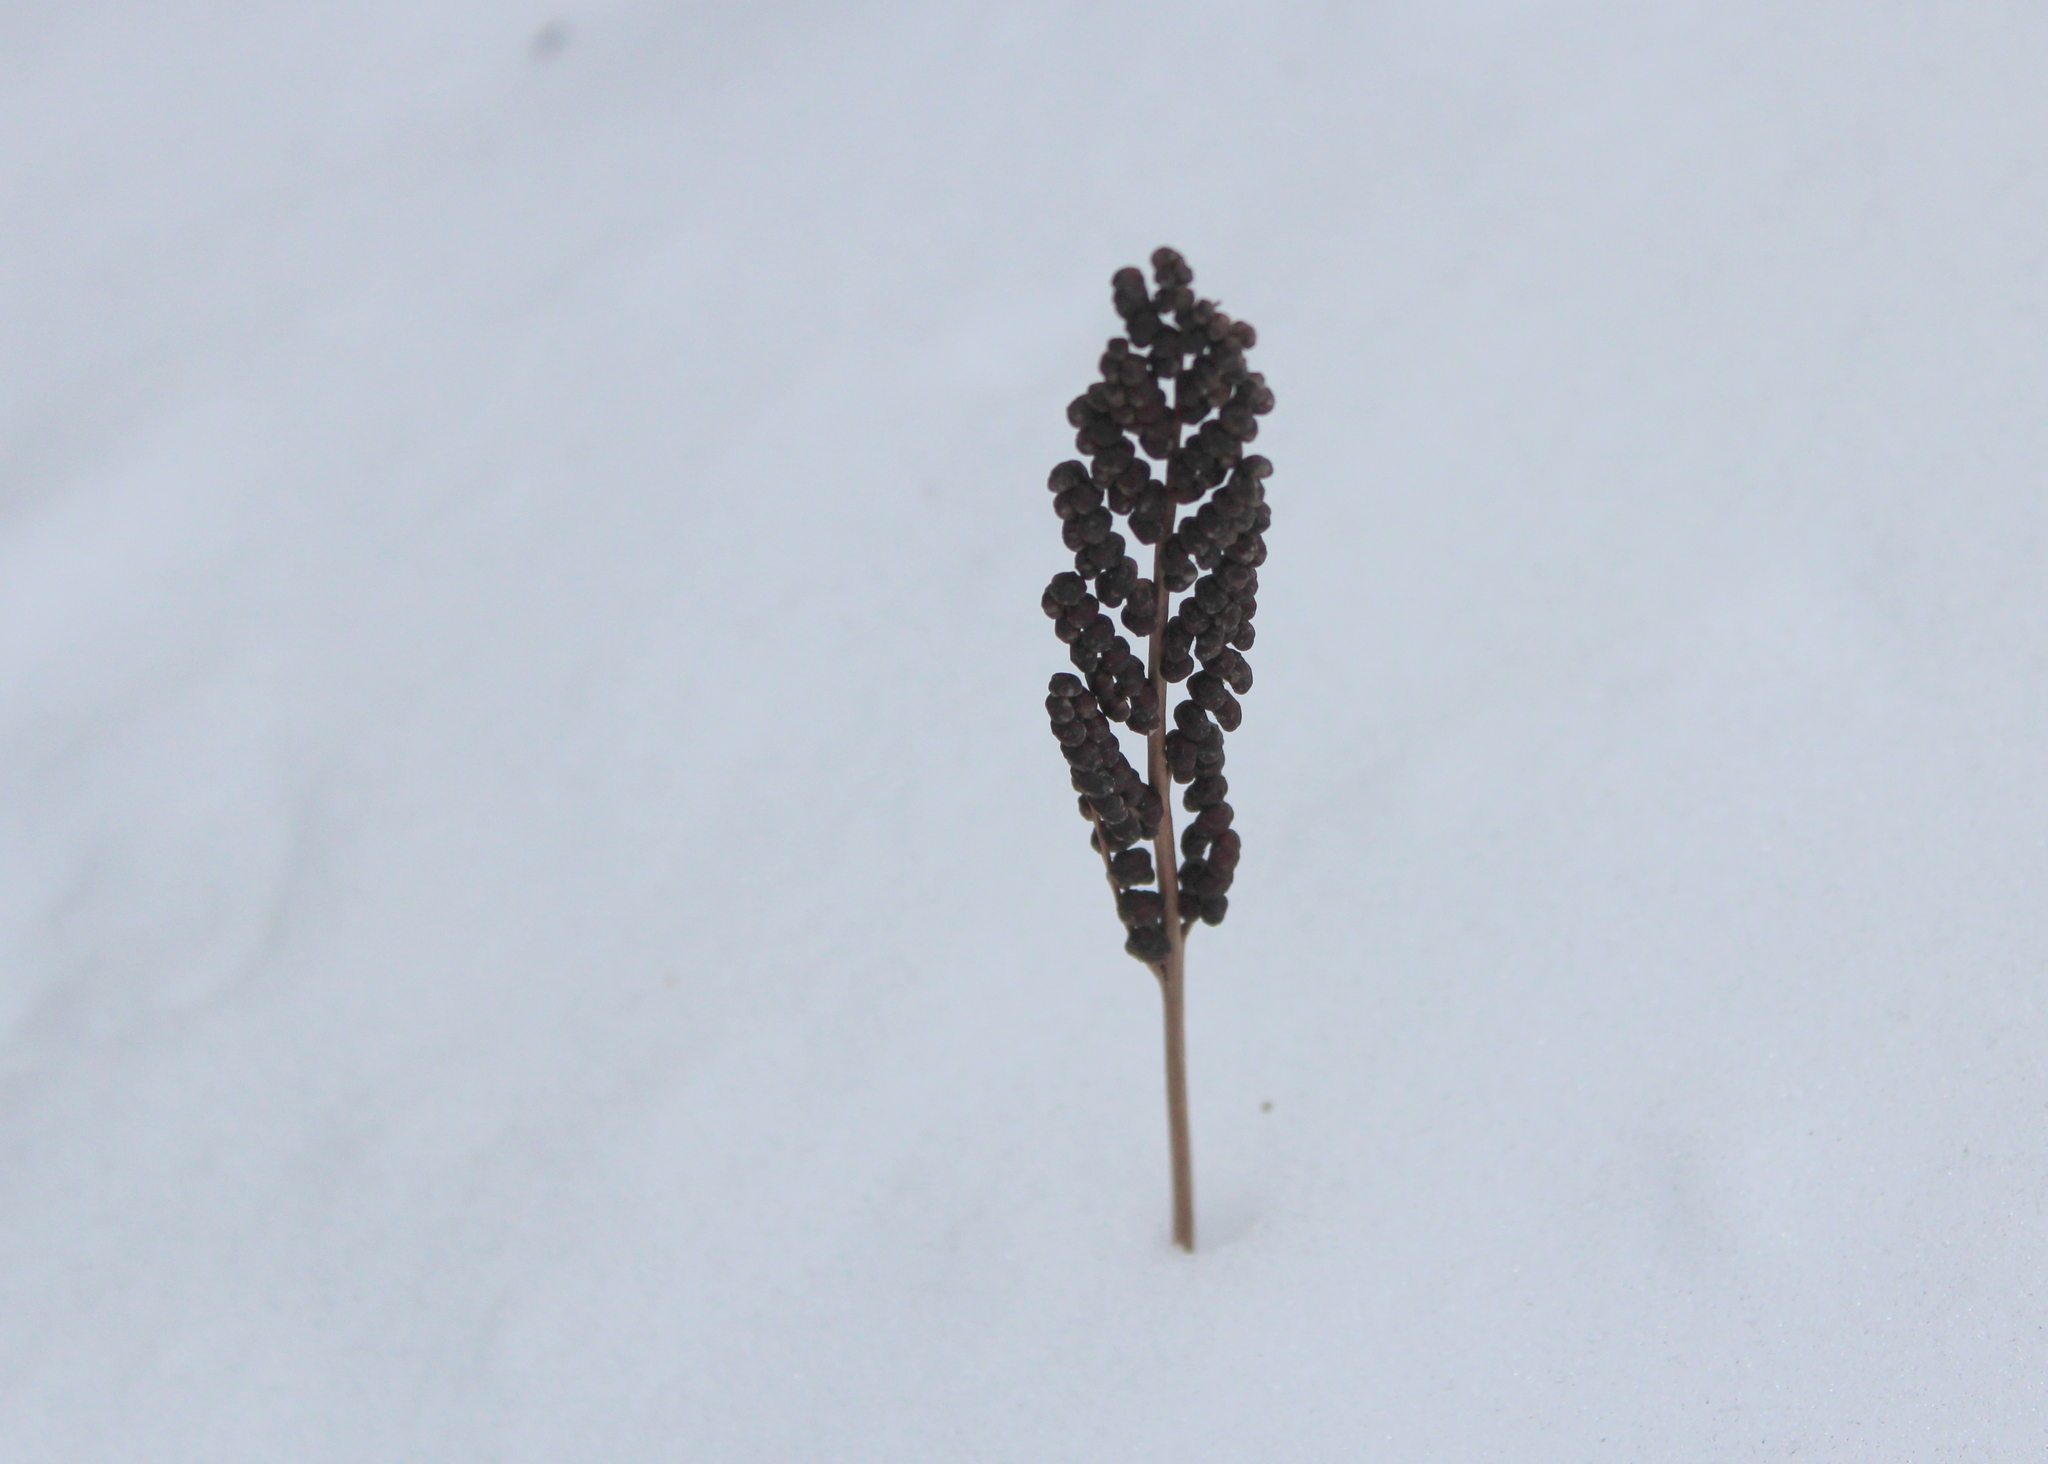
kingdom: Plantae
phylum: Tracheophyta
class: Polypodiopsida
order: Polypodiales
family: Onocleaceae
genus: Onoclea
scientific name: Onoclea sensibilis
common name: Sensitive fern
